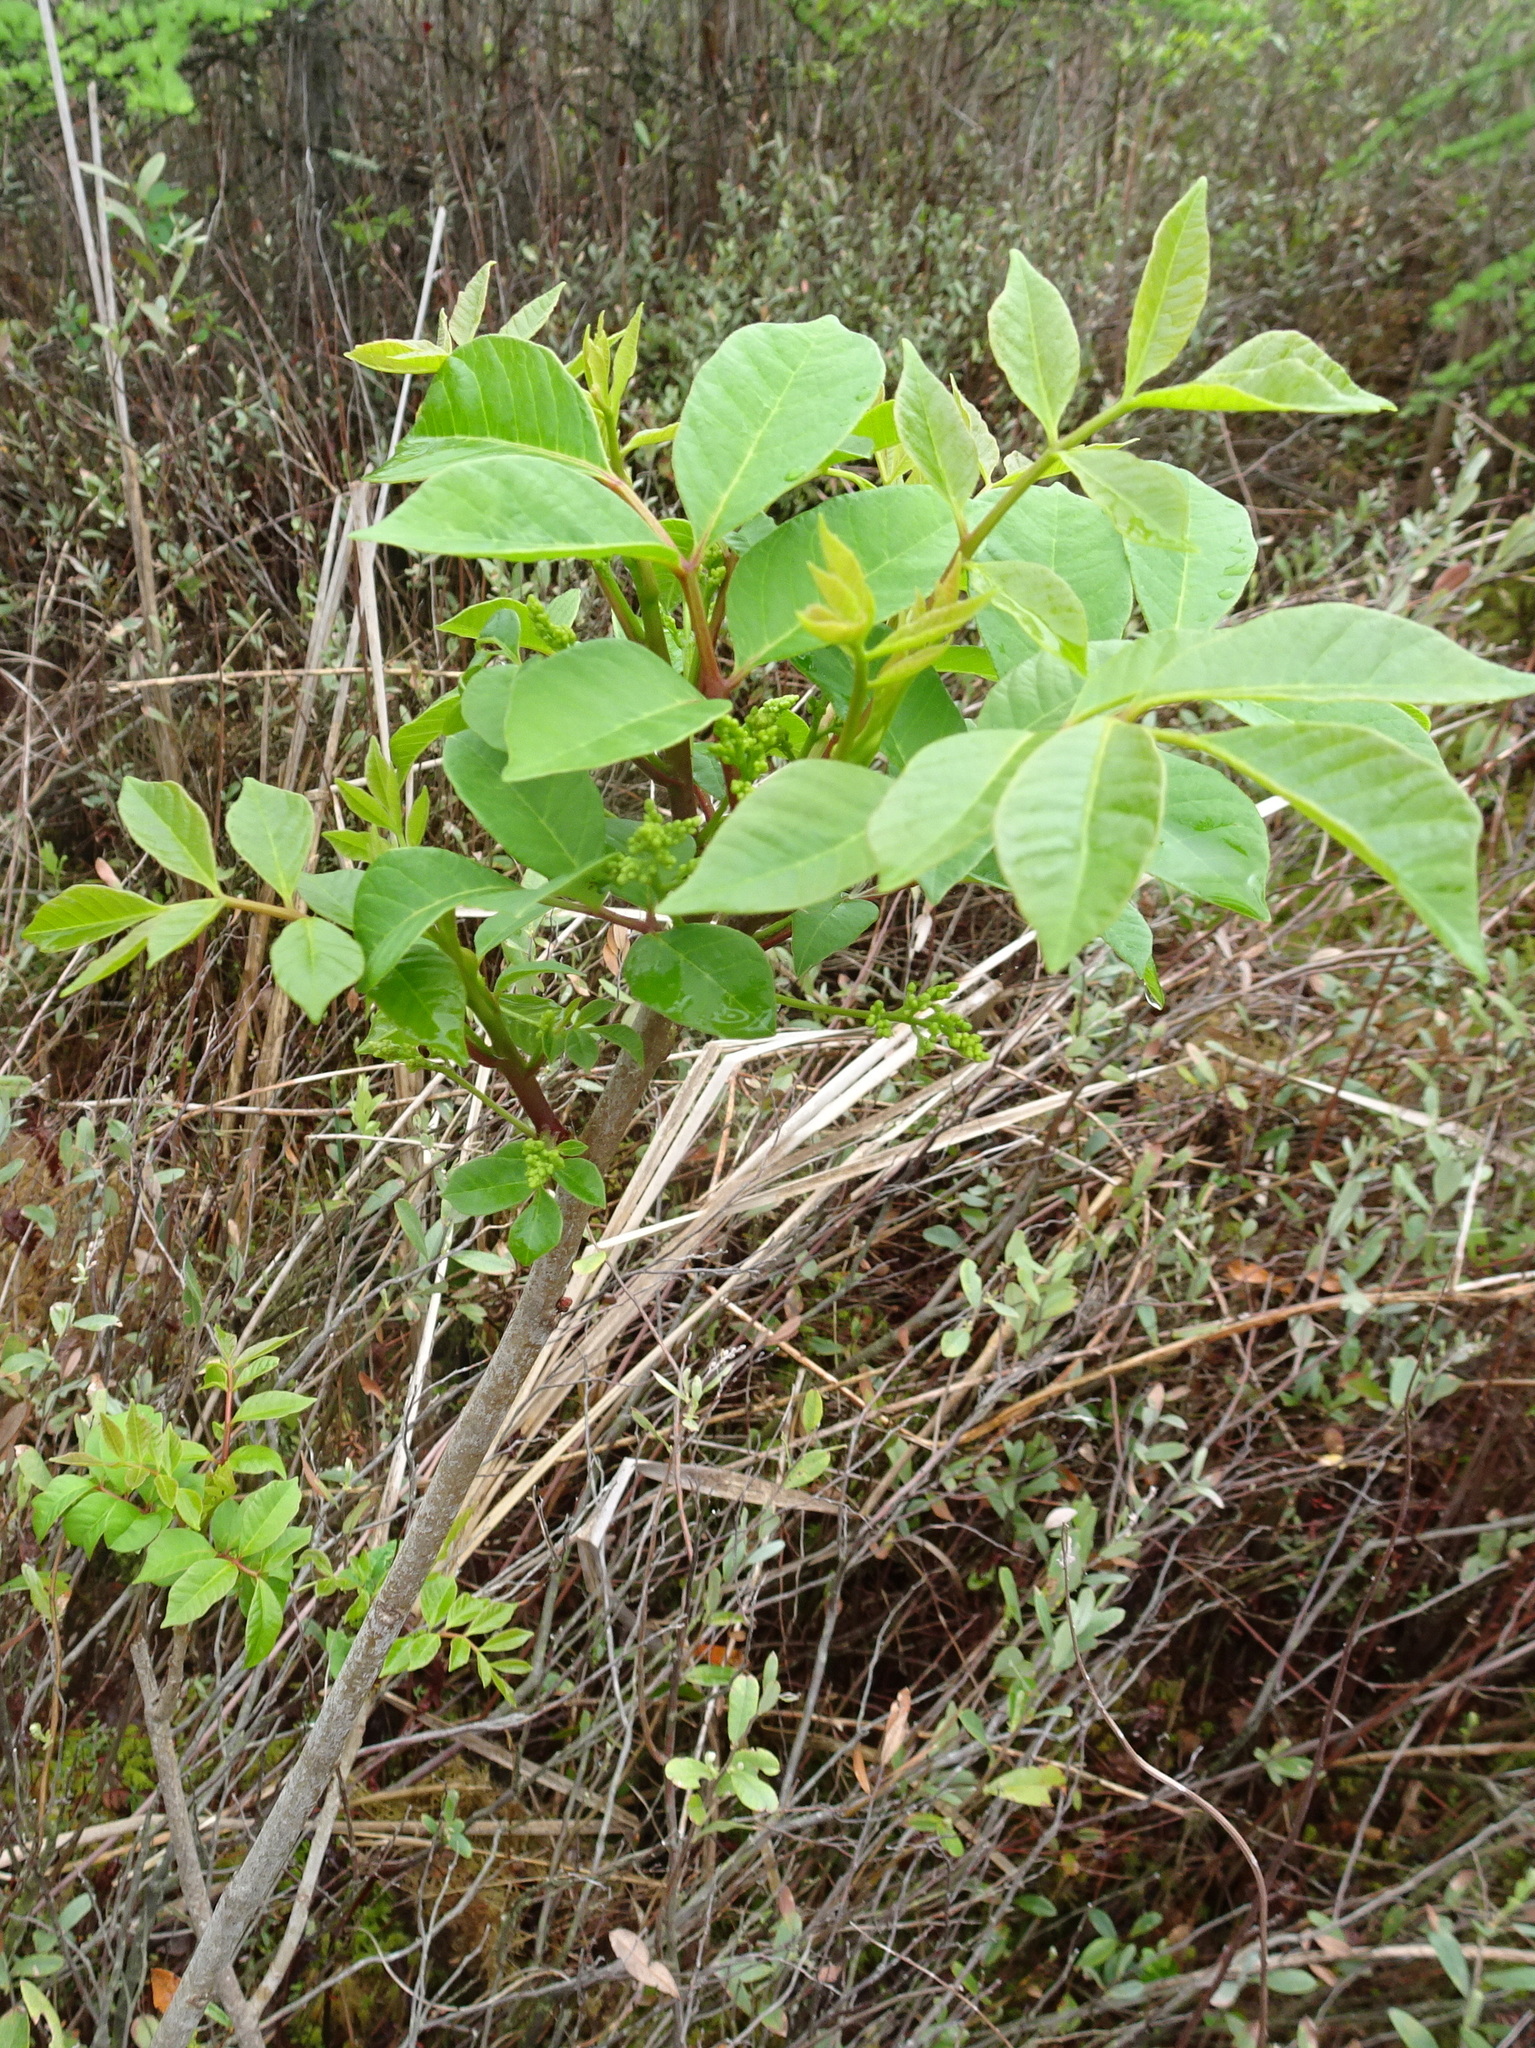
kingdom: Plantae
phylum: Tracheophyta
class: Magnoliopsida
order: Sapindales
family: Anacardiaceae
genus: Toxicodendron
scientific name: Toxicodendron vernix
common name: Poison sumac
